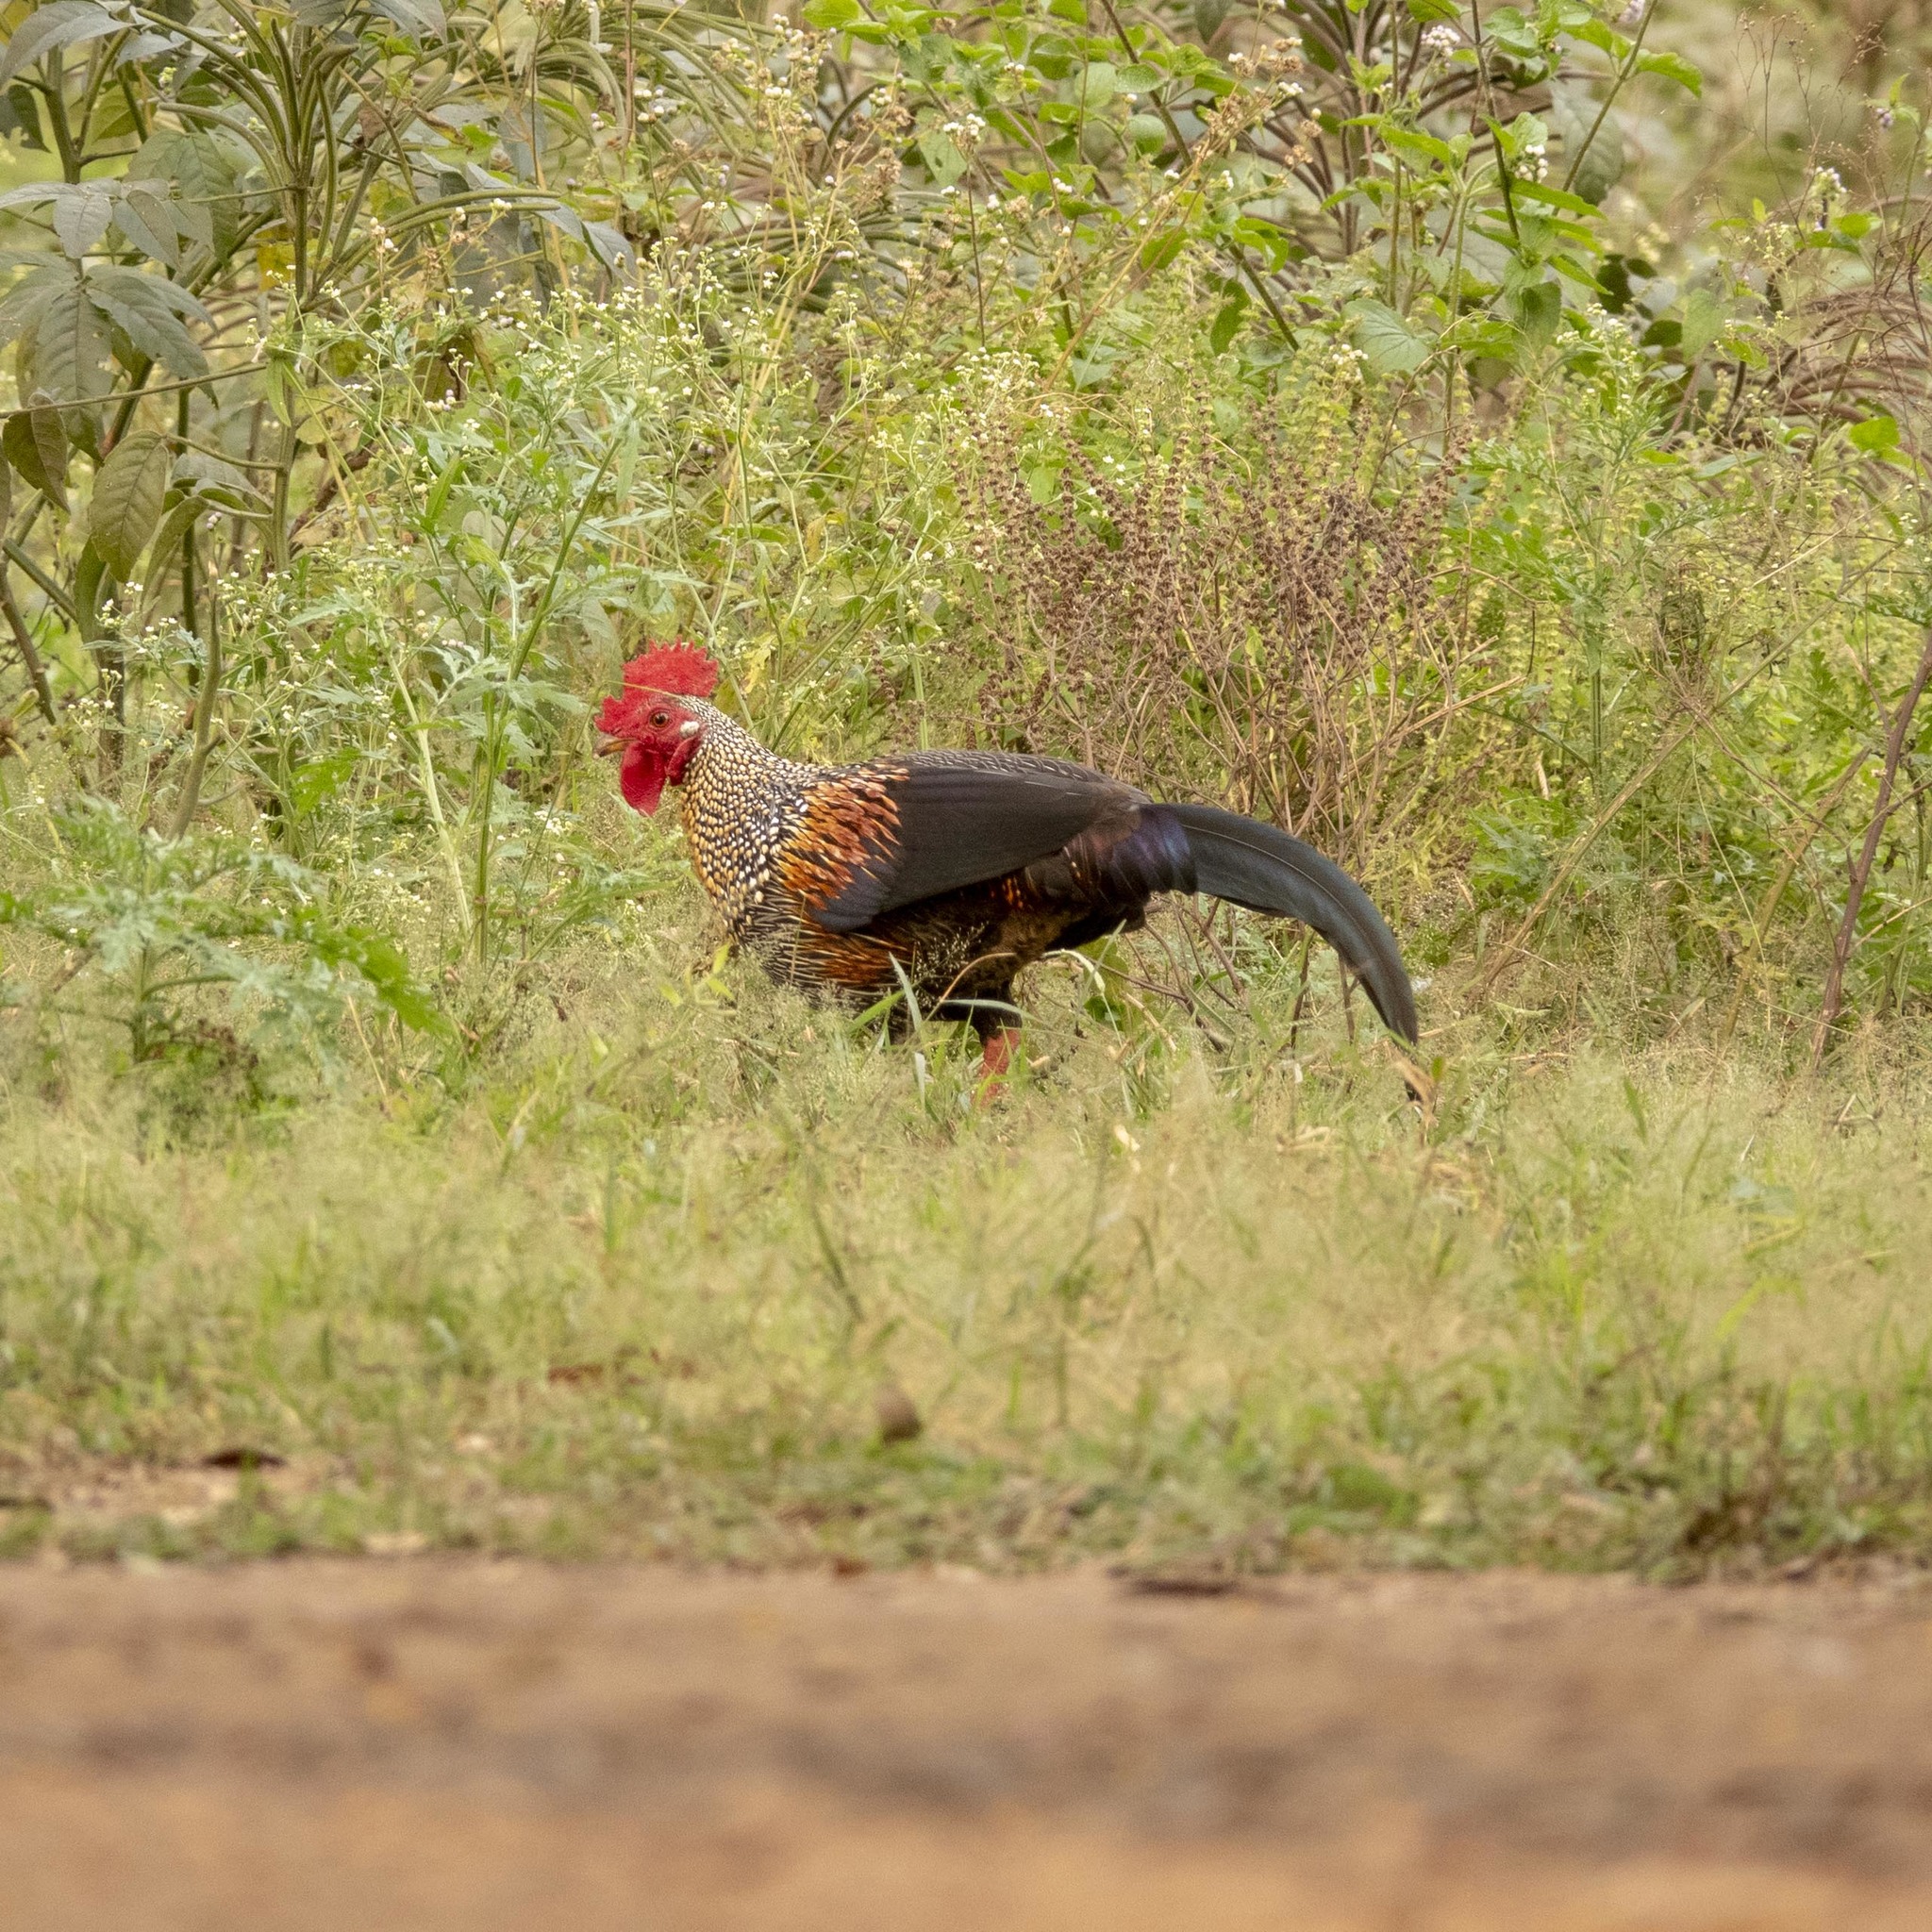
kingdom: Animalia
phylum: Chordata
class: Aves
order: Galliformes
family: Phasianidae
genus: Gallus
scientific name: Gallus sonneratii
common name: Grey junglefowl
